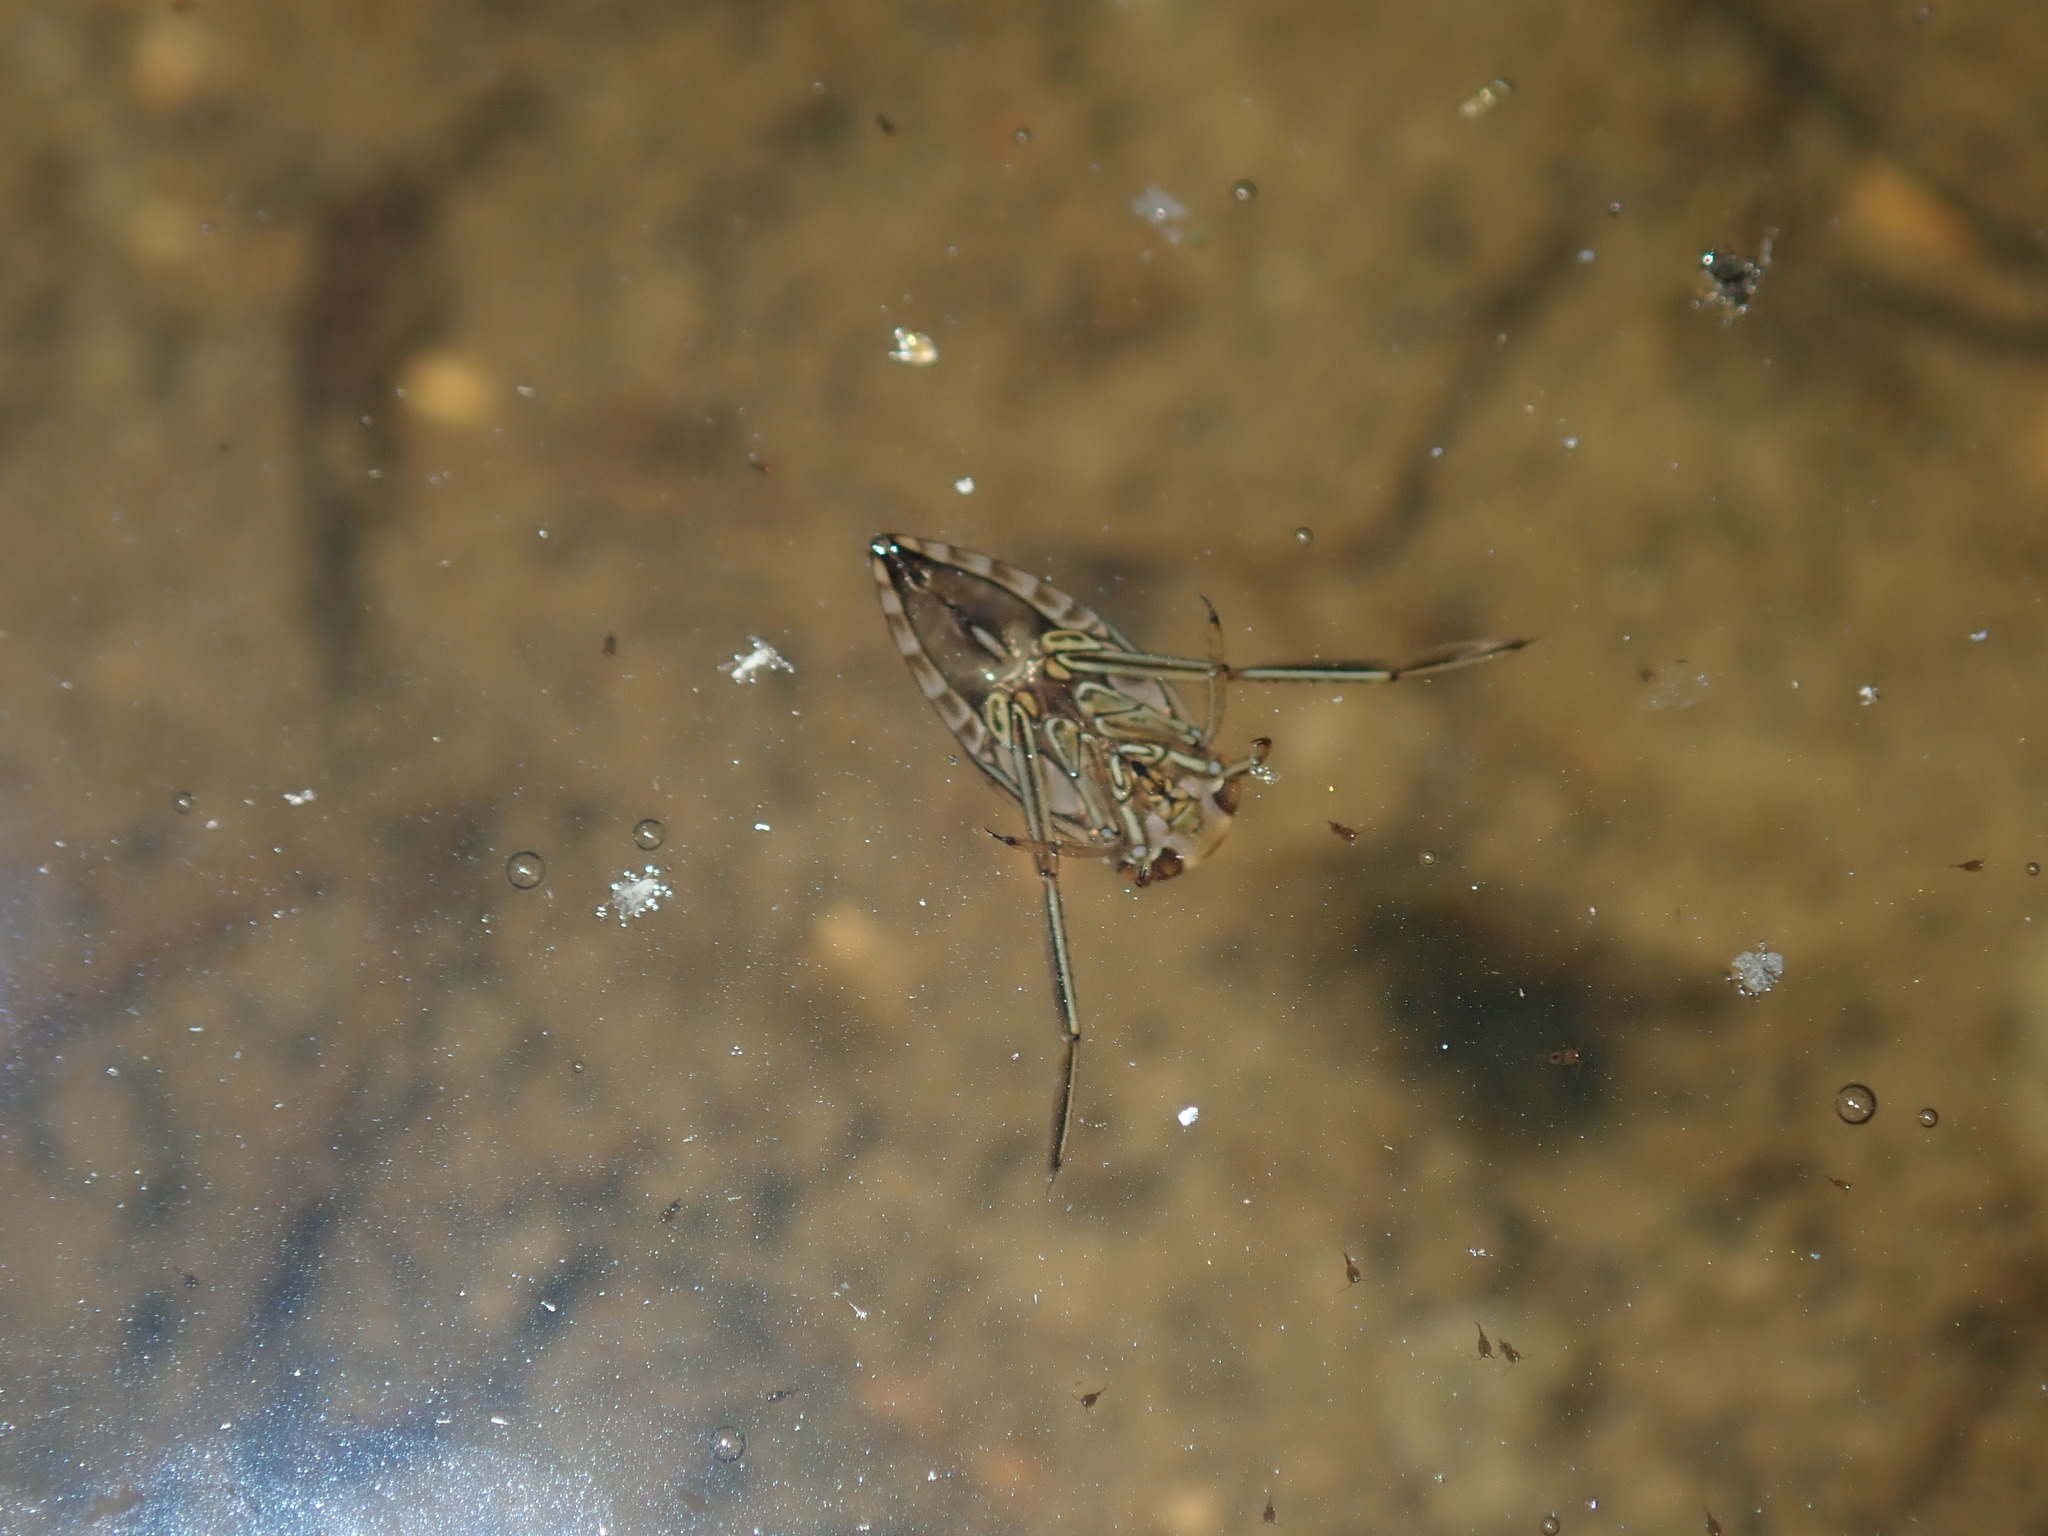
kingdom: Animalia
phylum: Arthropoda
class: Insecta
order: Hemiptera
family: Notonectidae
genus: Enithares
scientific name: Enithares
